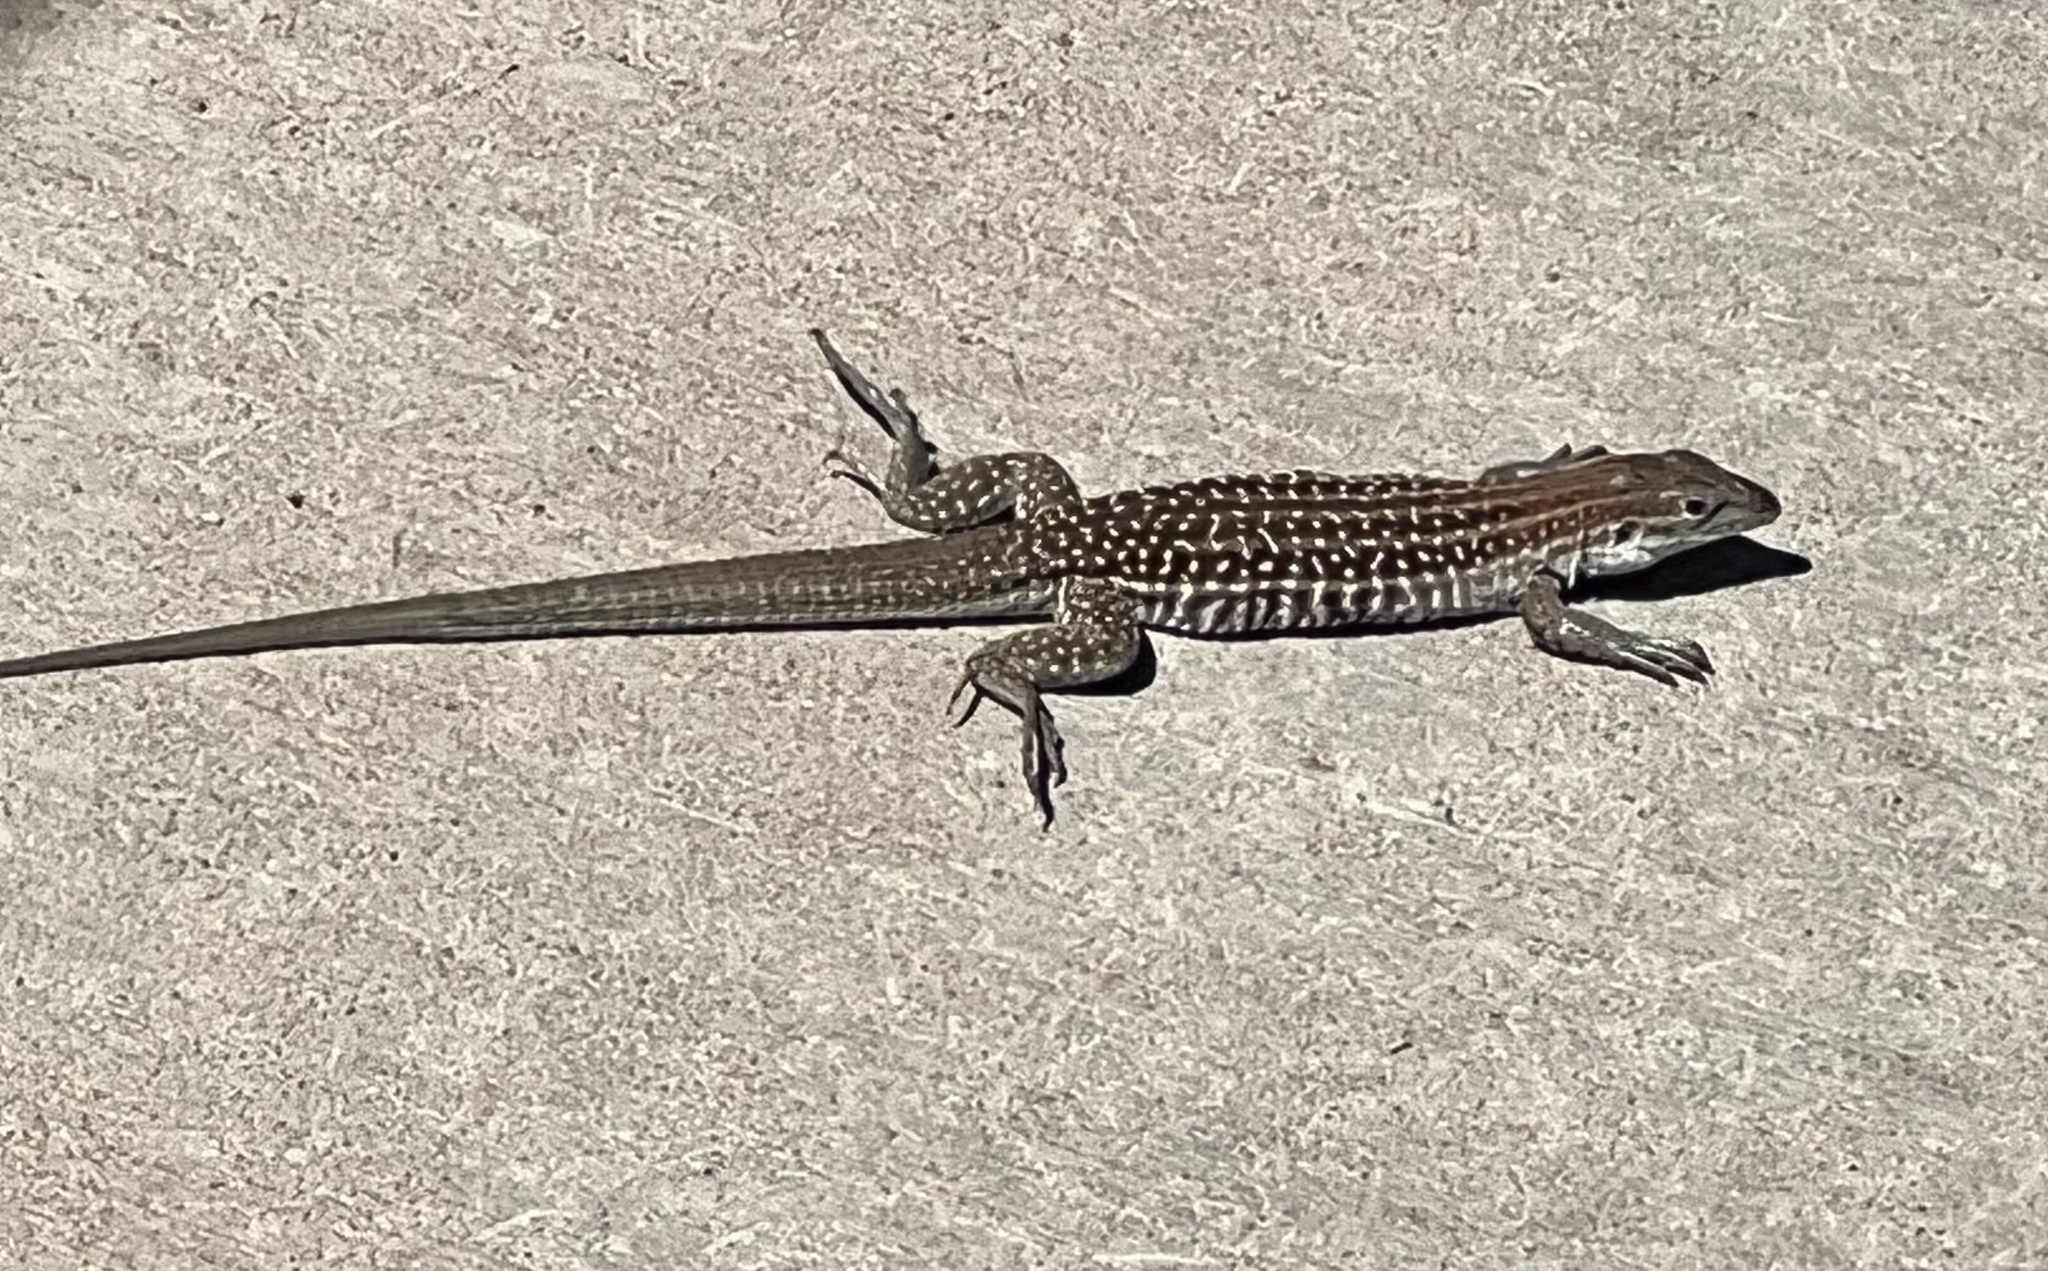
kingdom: Animalia
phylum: Chordata
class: Squamata
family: Teiidae
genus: Aspidoscelis
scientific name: Aspidoscelis exsanguis
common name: Chihuahuan spotted whiptail
